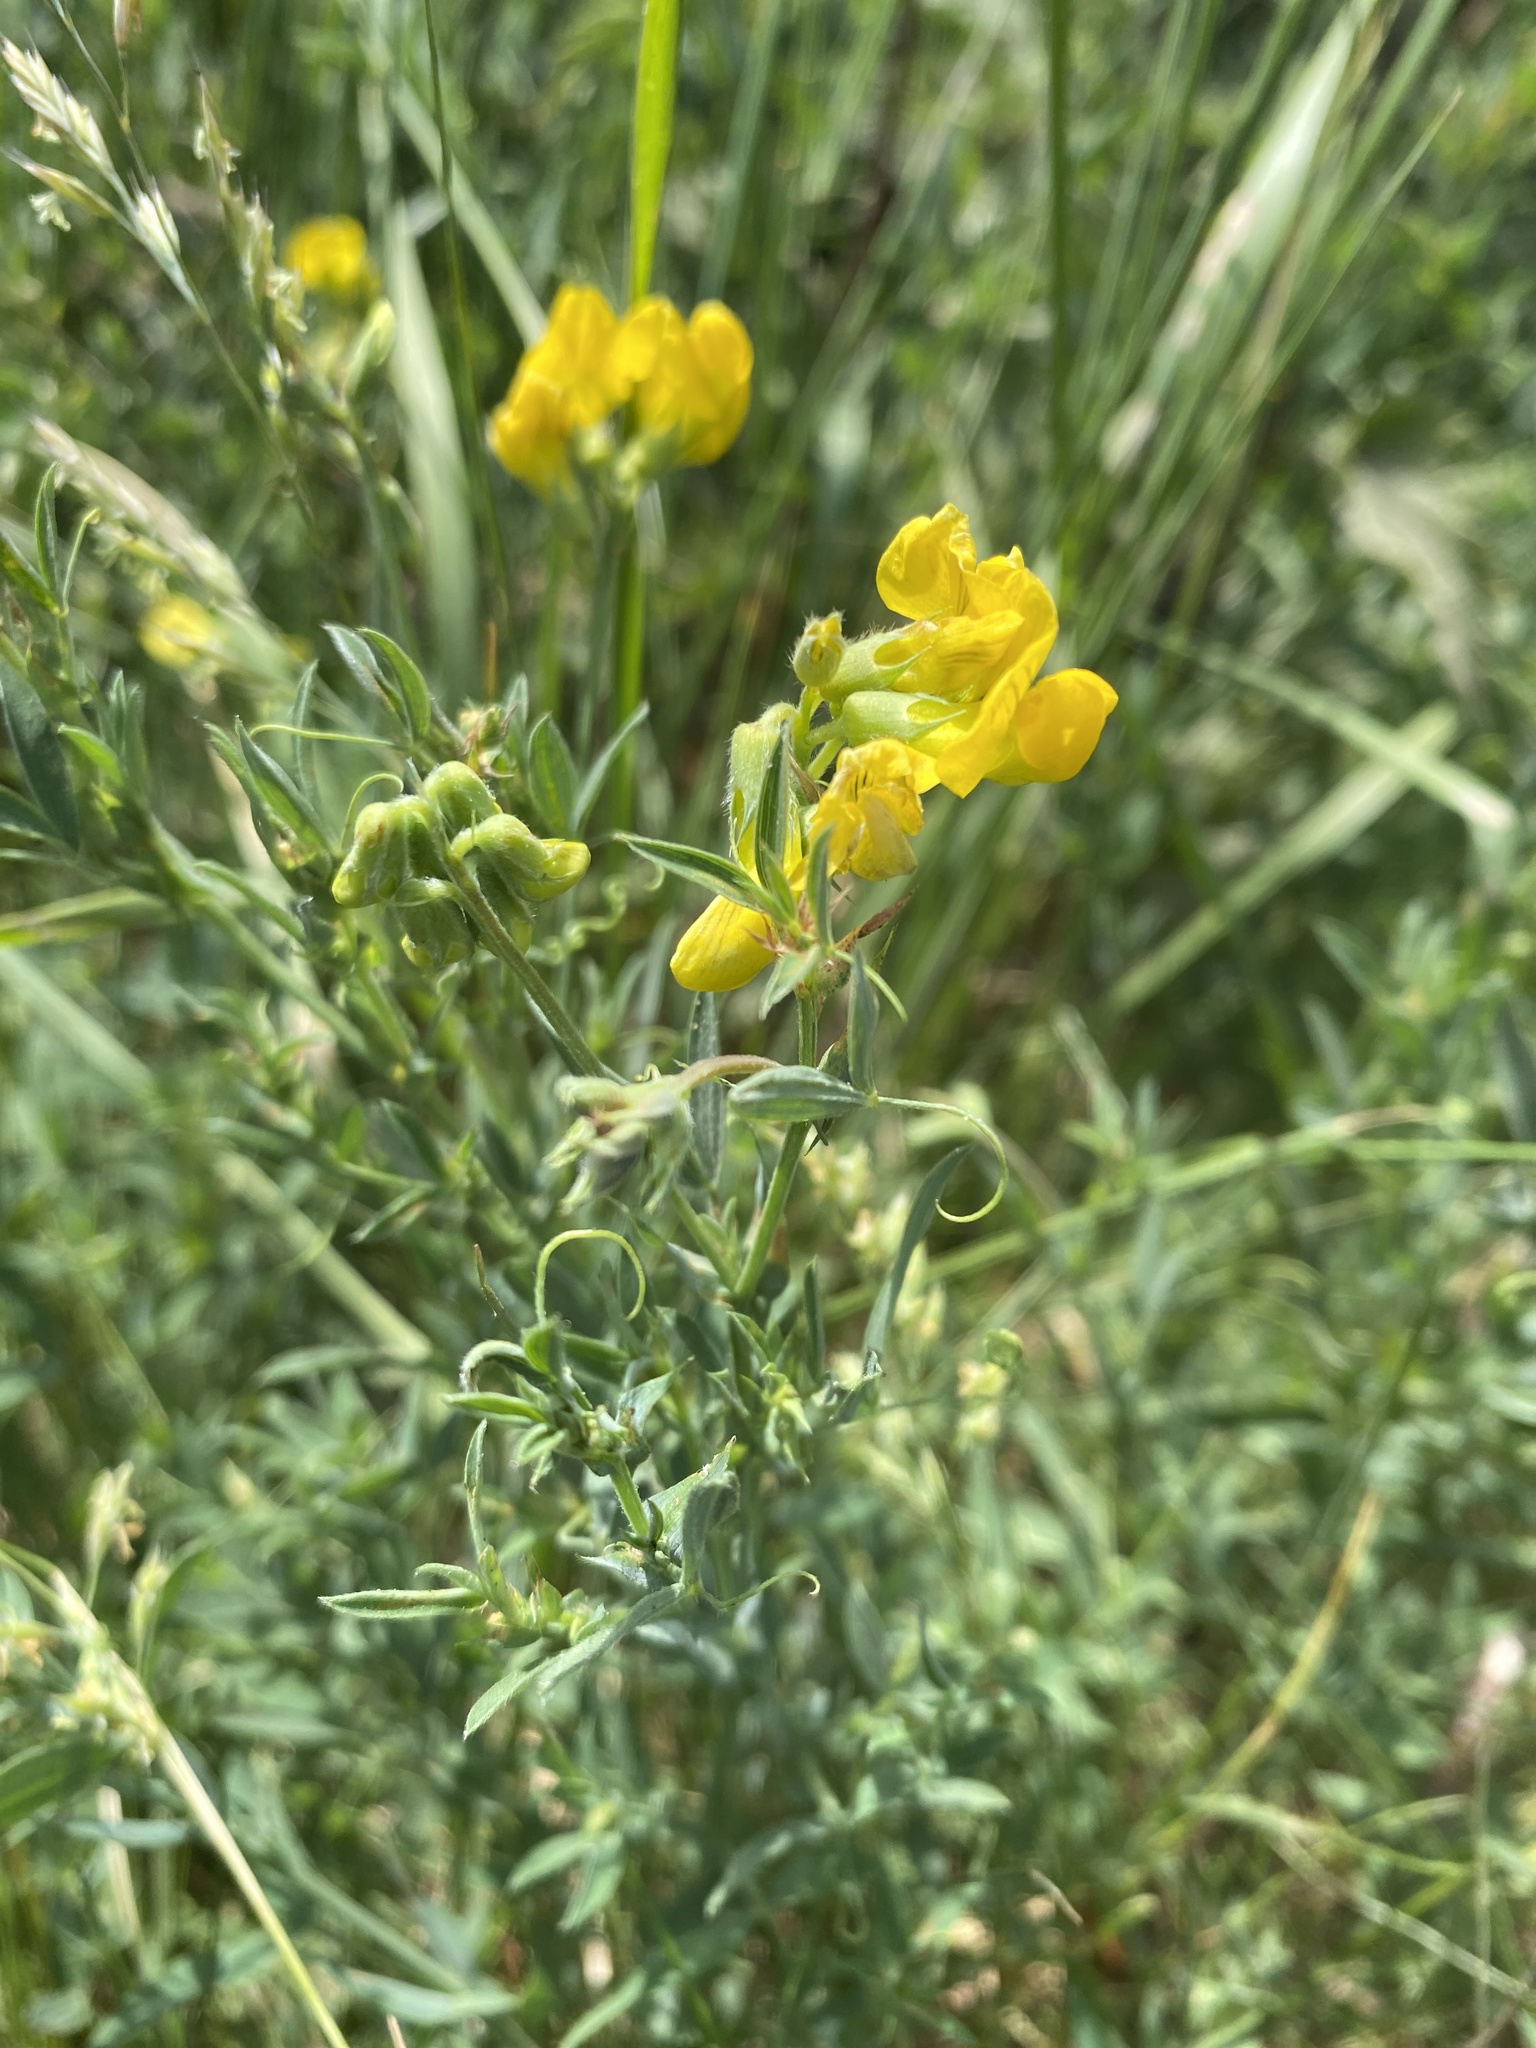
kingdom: Plantae
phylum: Tracheophyta
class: Magnoliopsida
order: Fabales
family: Fabaceae
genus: Lathyrus
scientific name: Lathyrus pratensis
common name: Meadow vetchling
